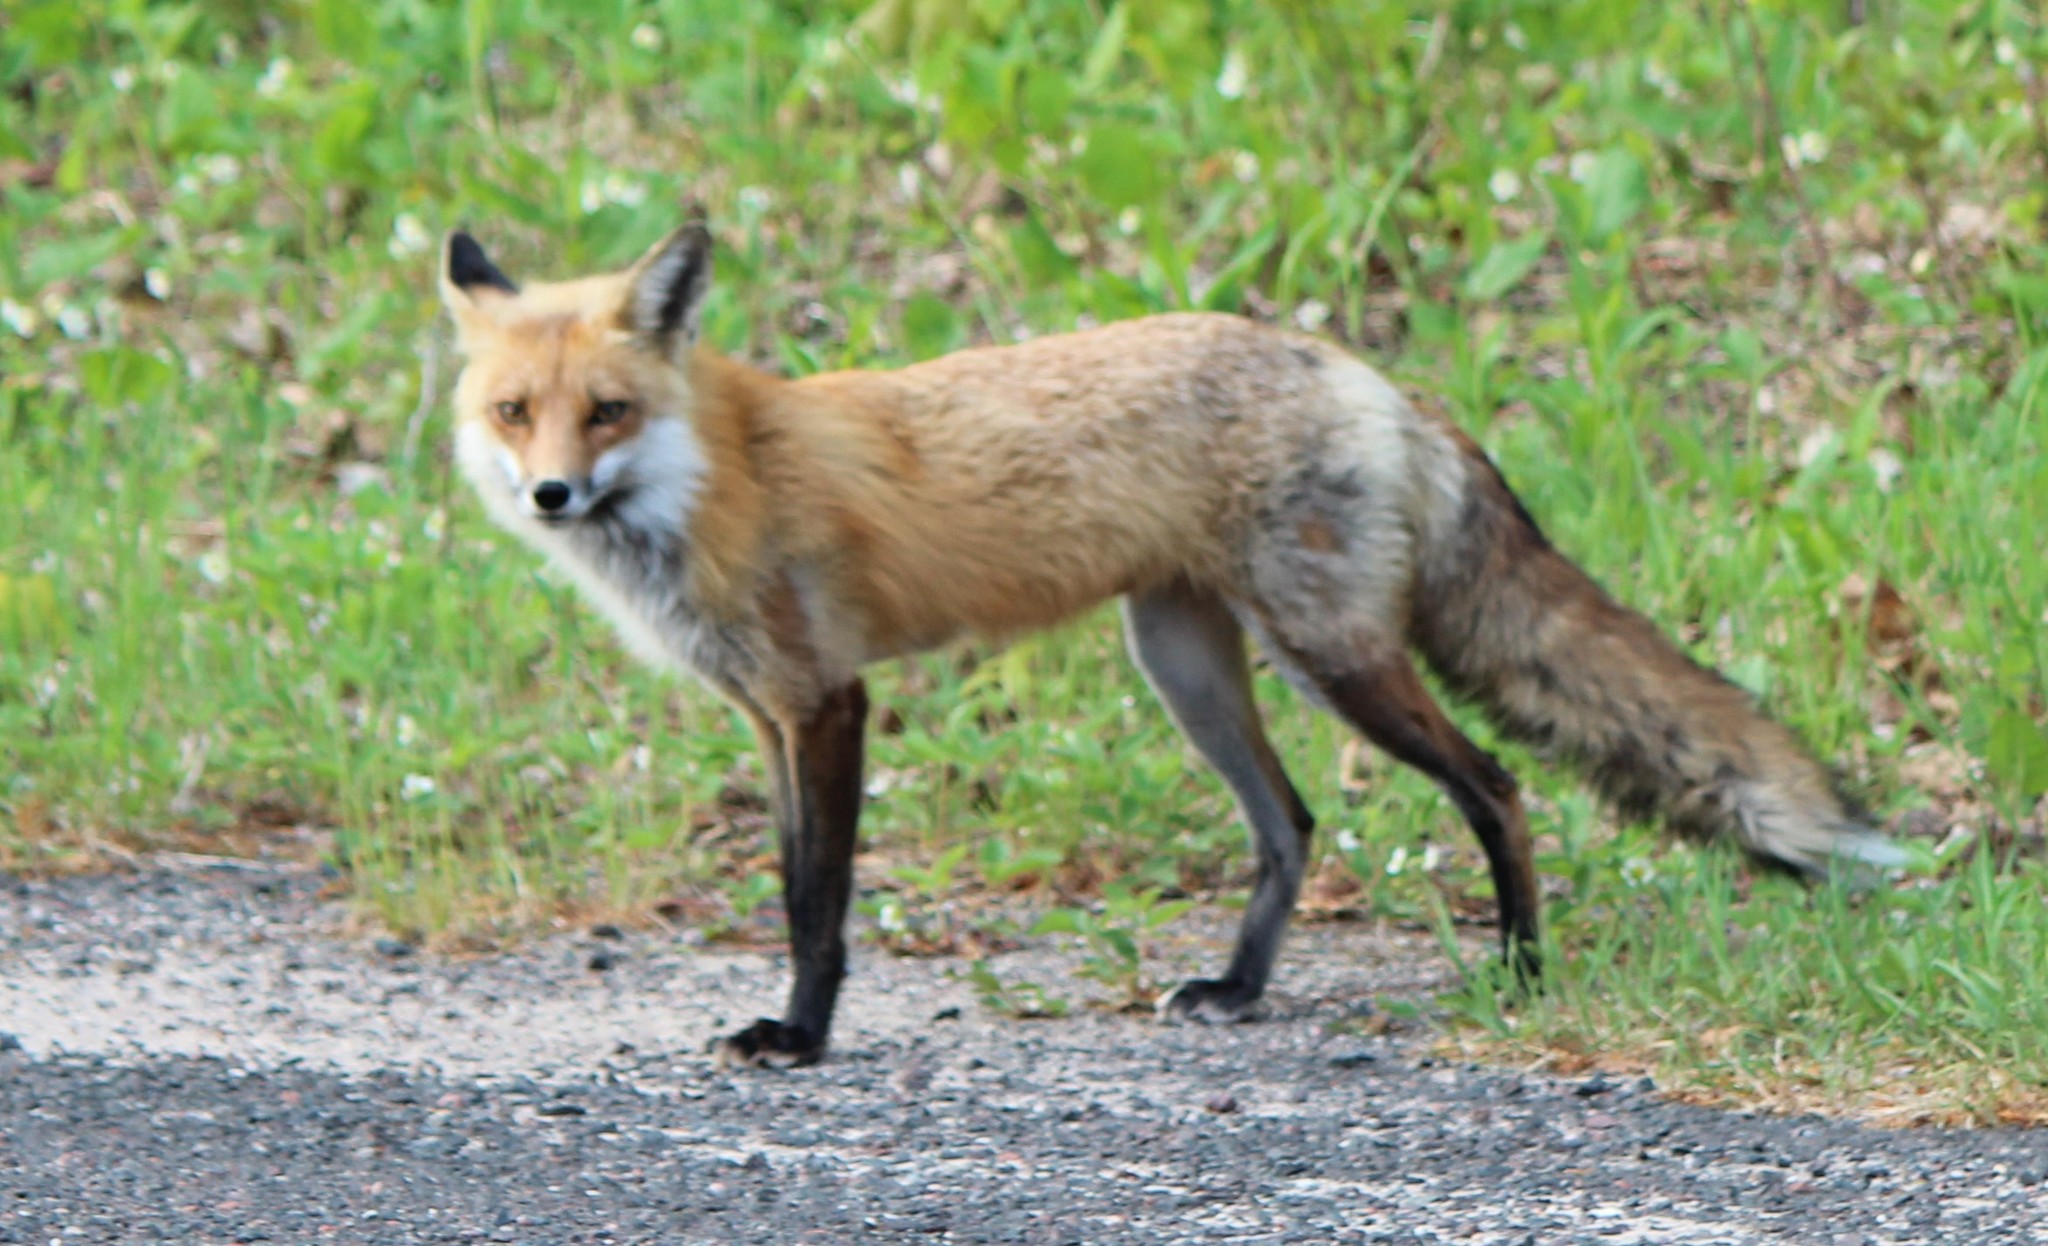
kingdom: Animalia
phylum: Chordata
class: Mammalia
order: Carnivora
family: Canidae
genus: Vulpes
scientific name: Vulpes vulpes
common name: Red fox
